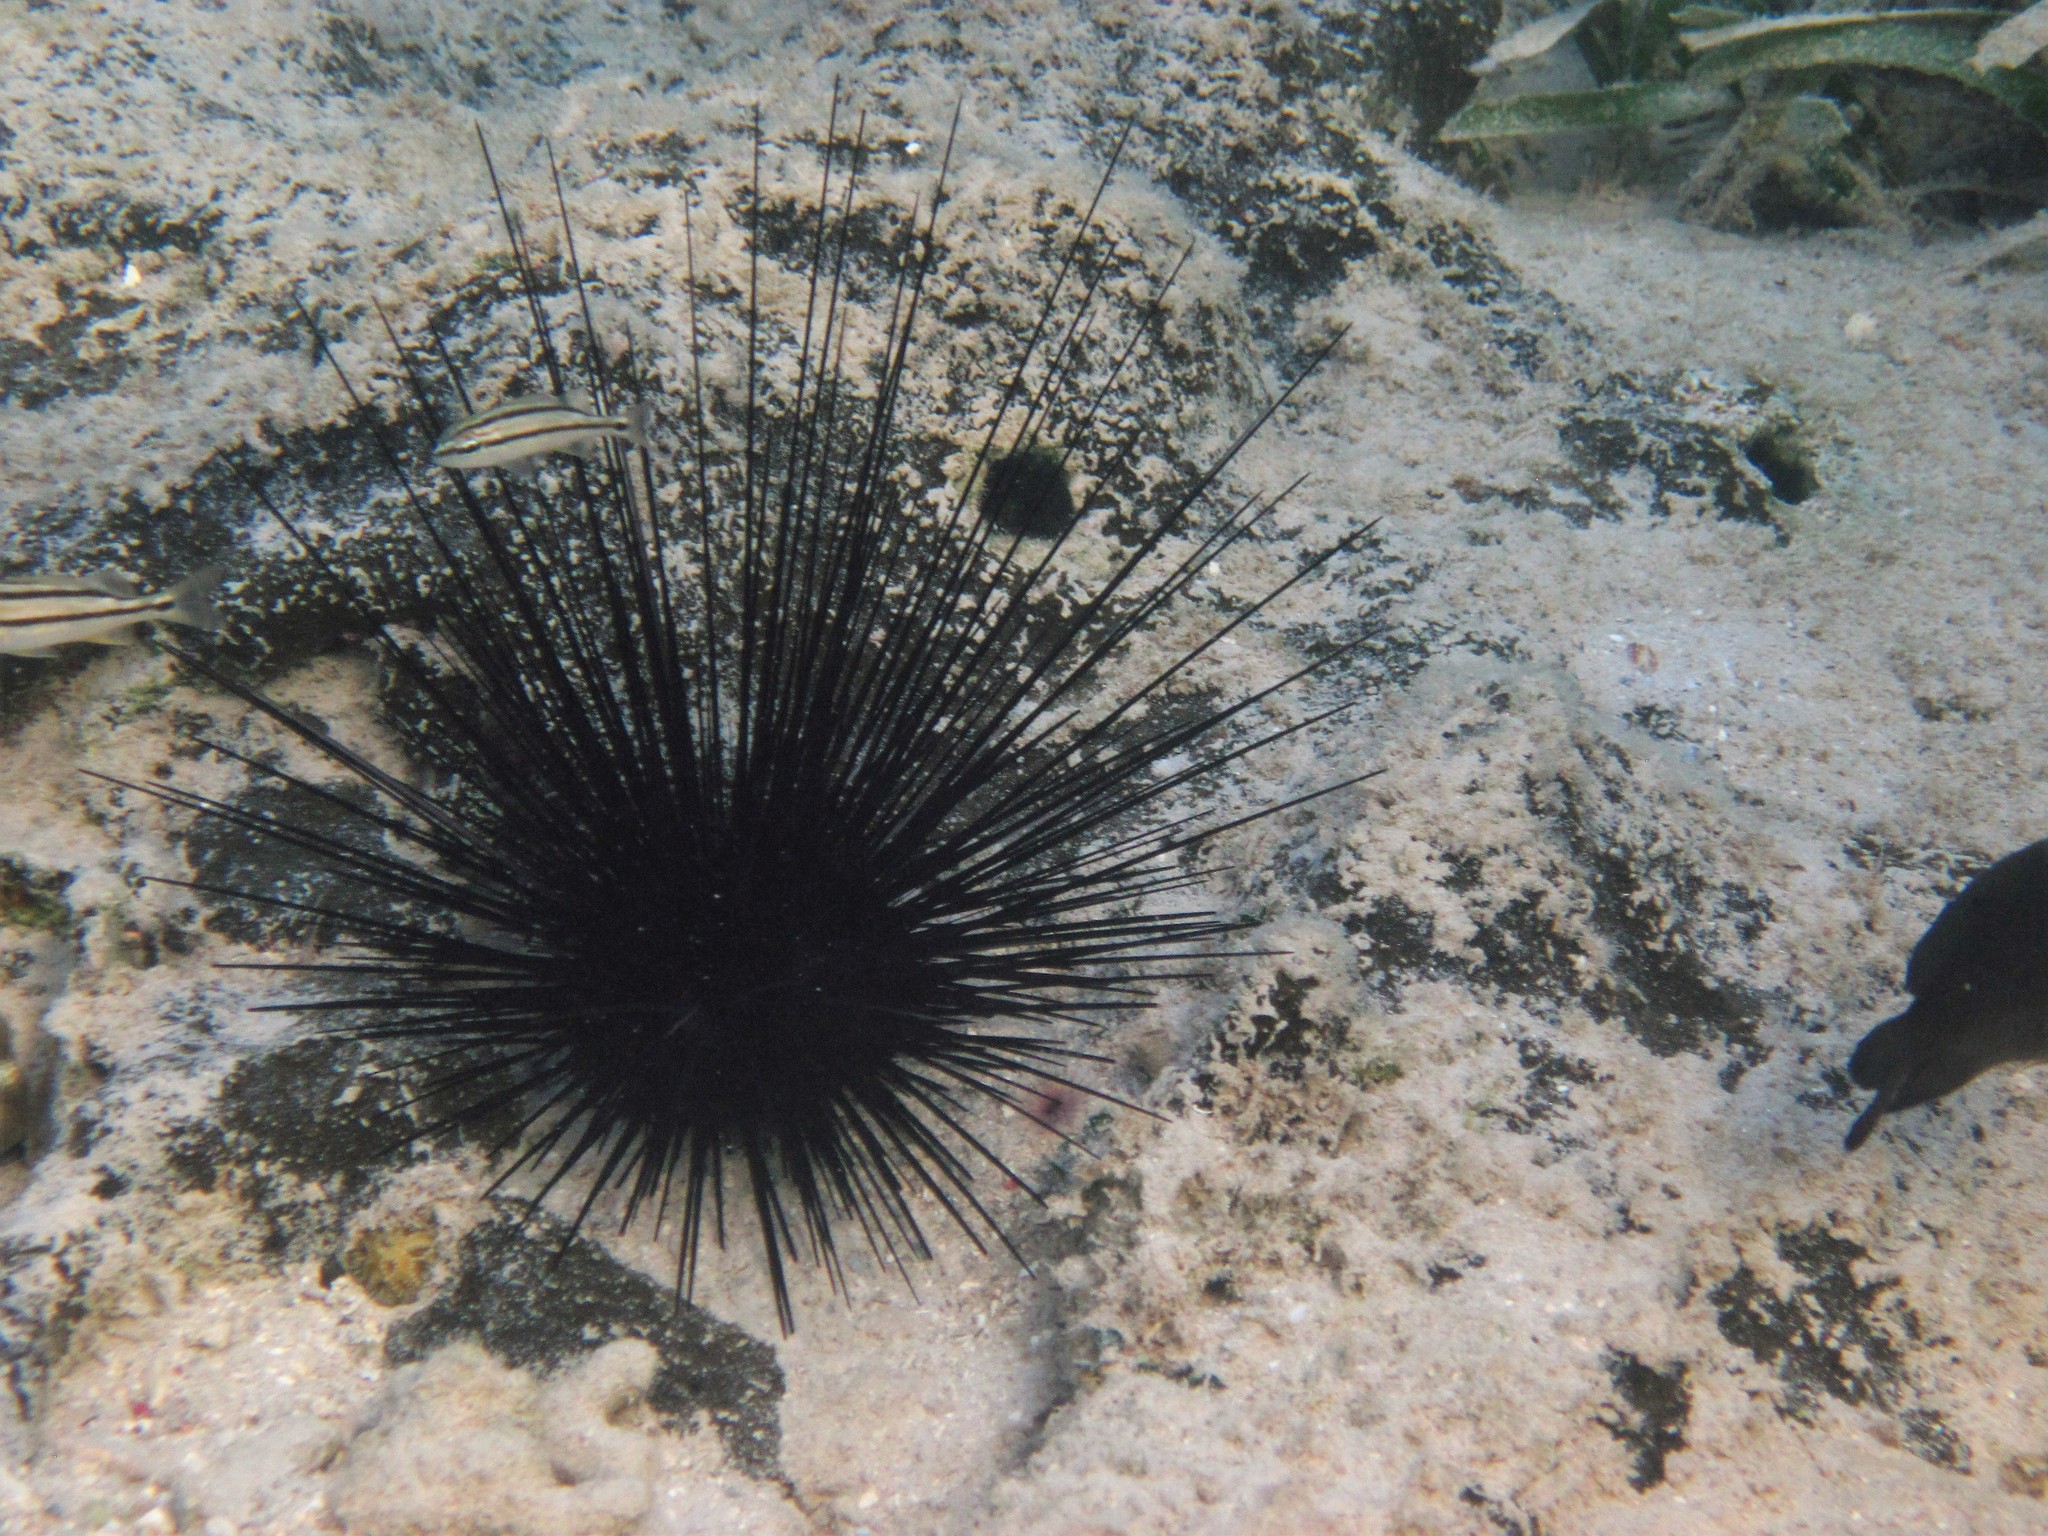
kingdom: Animalia
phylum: Echinodermata
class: Echinoidea
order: Diadematoida
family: Diadematidae
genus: Diadema
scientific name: Diadema antillarum
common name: Spiny urchin
